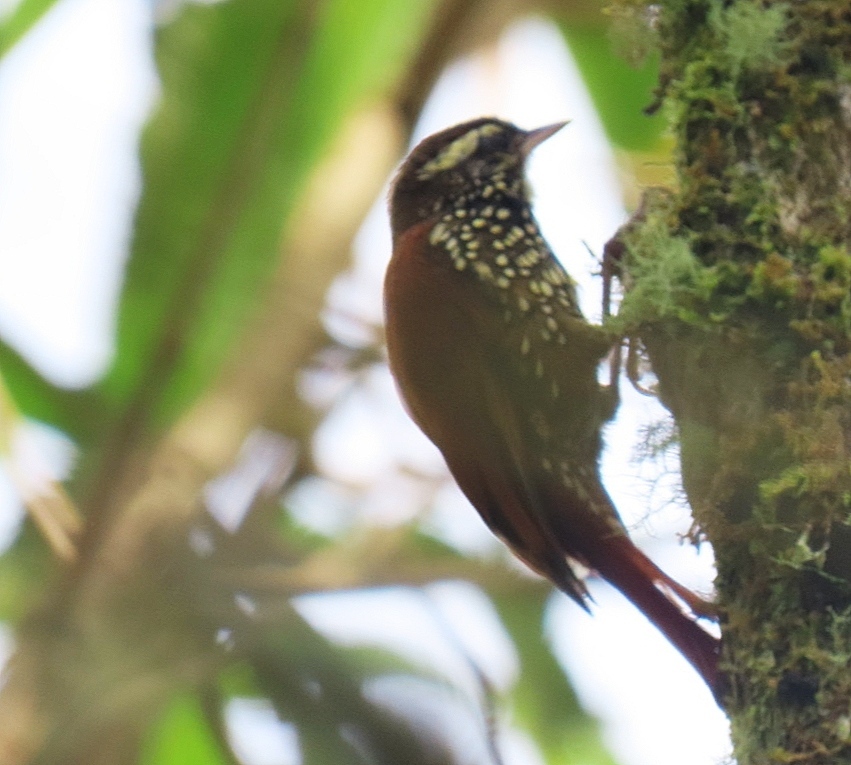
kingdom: Animalia
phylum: Chordata
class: Aves
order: Passeriformes
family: Furnariidae
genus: Xenops
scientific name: Xenops rutilans
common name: Streaked xenops
